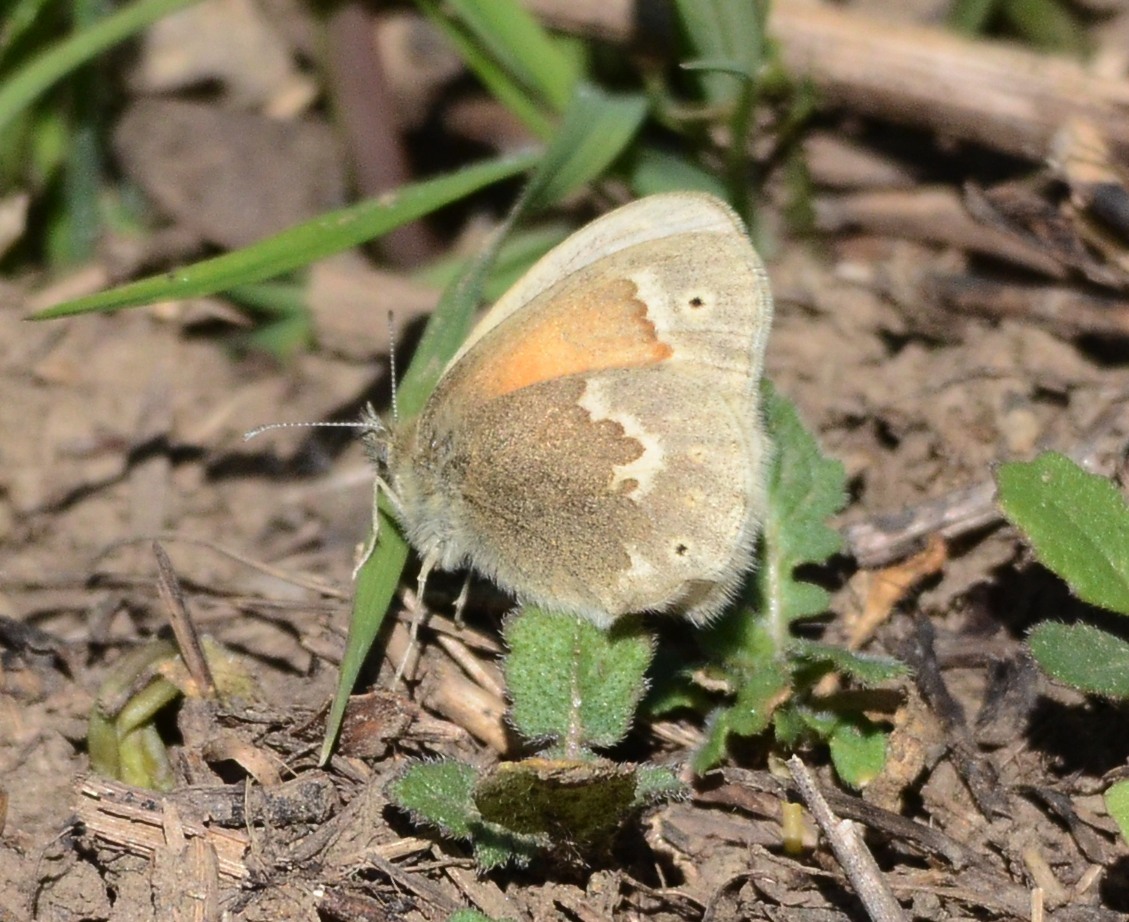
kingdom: Animalia
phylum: Arthropoda
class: Insecta
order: Lepidoptera
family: Nymphalidae
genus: Coenonympha
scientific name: Coenonympha california
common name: Common ringlet
